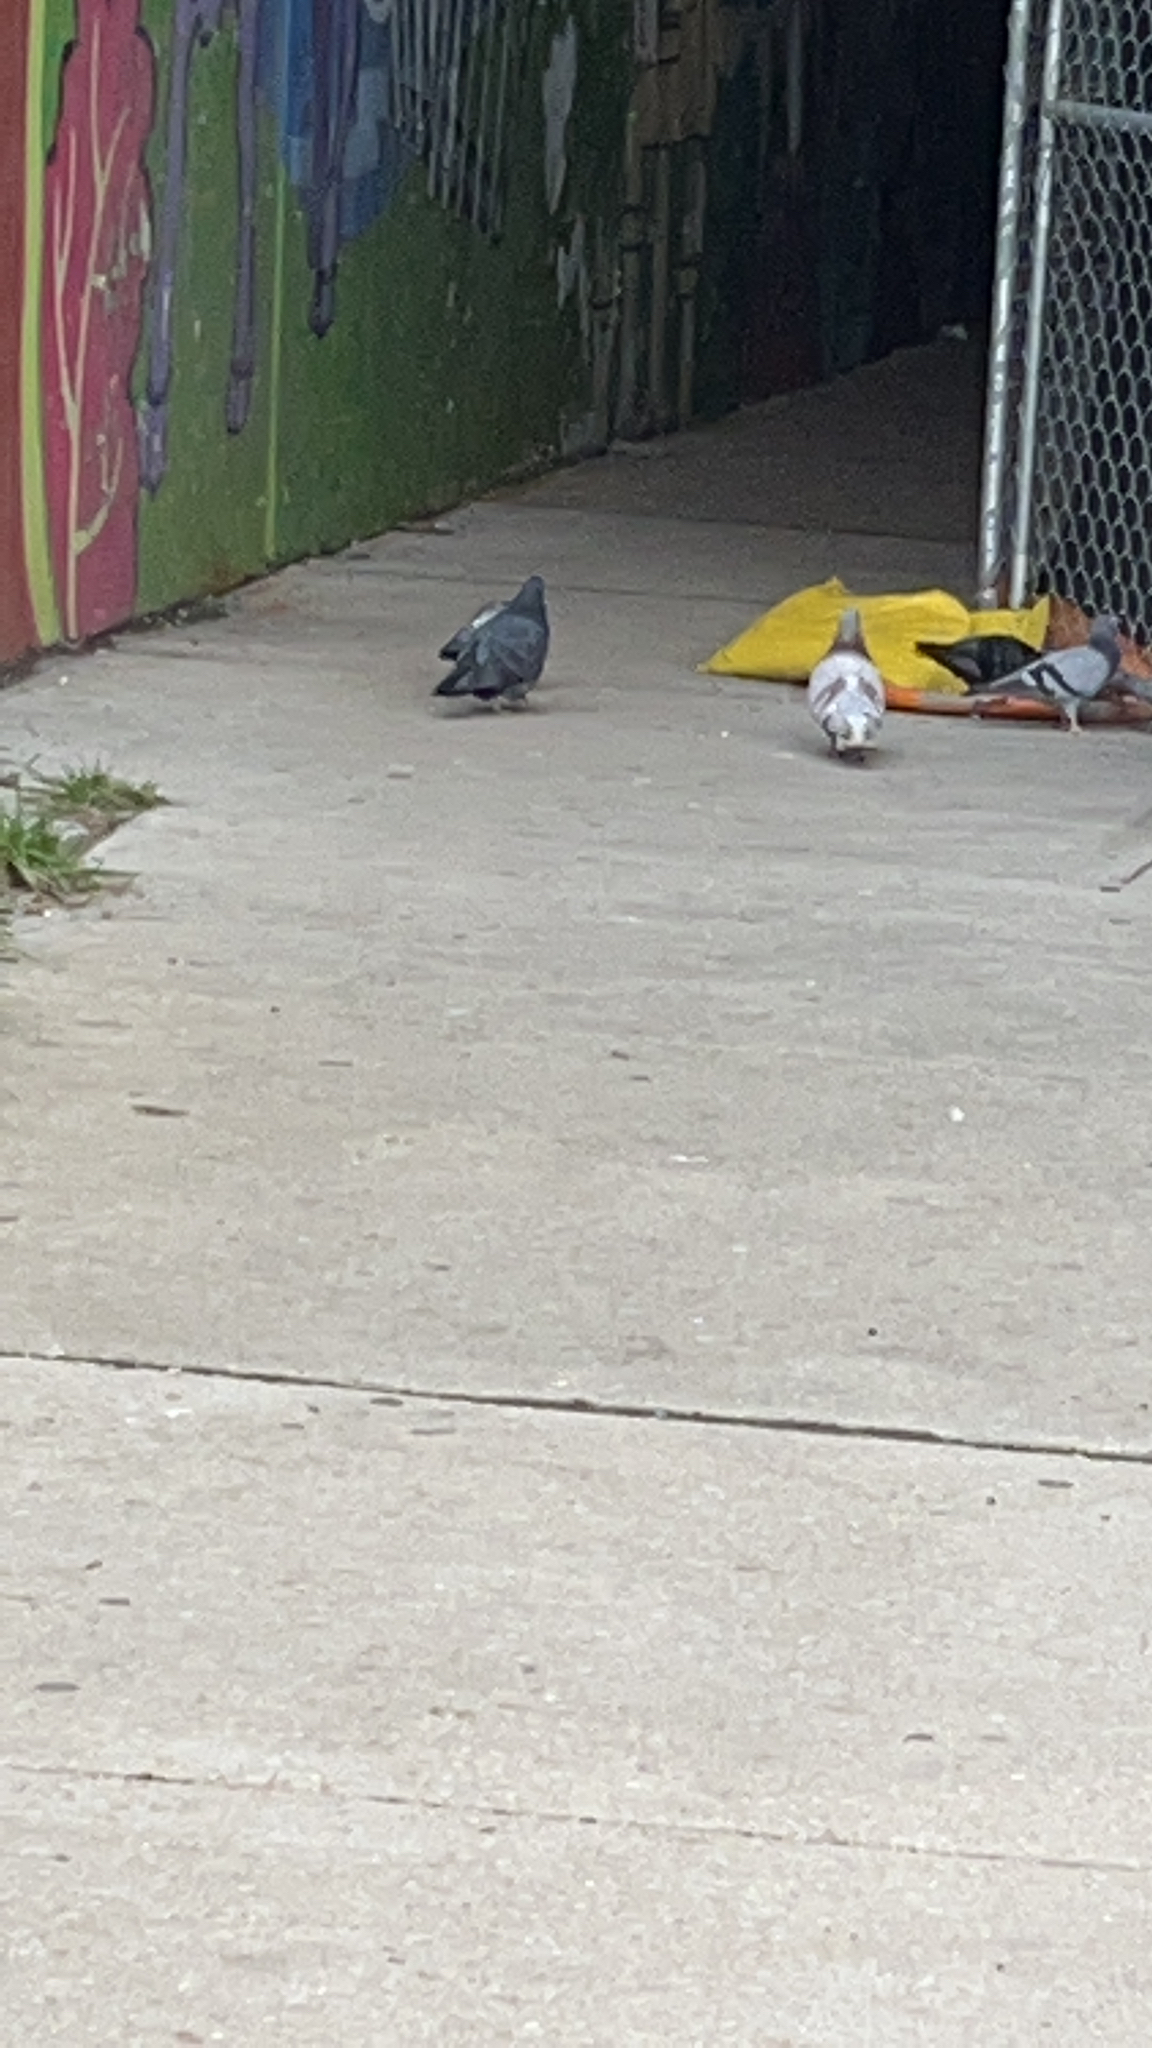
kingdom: Animalia
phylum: Chordata
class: Aves
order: Columbiformes
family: Columbidae
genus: Columba
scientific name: Columba livia
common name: Rock pigeon
